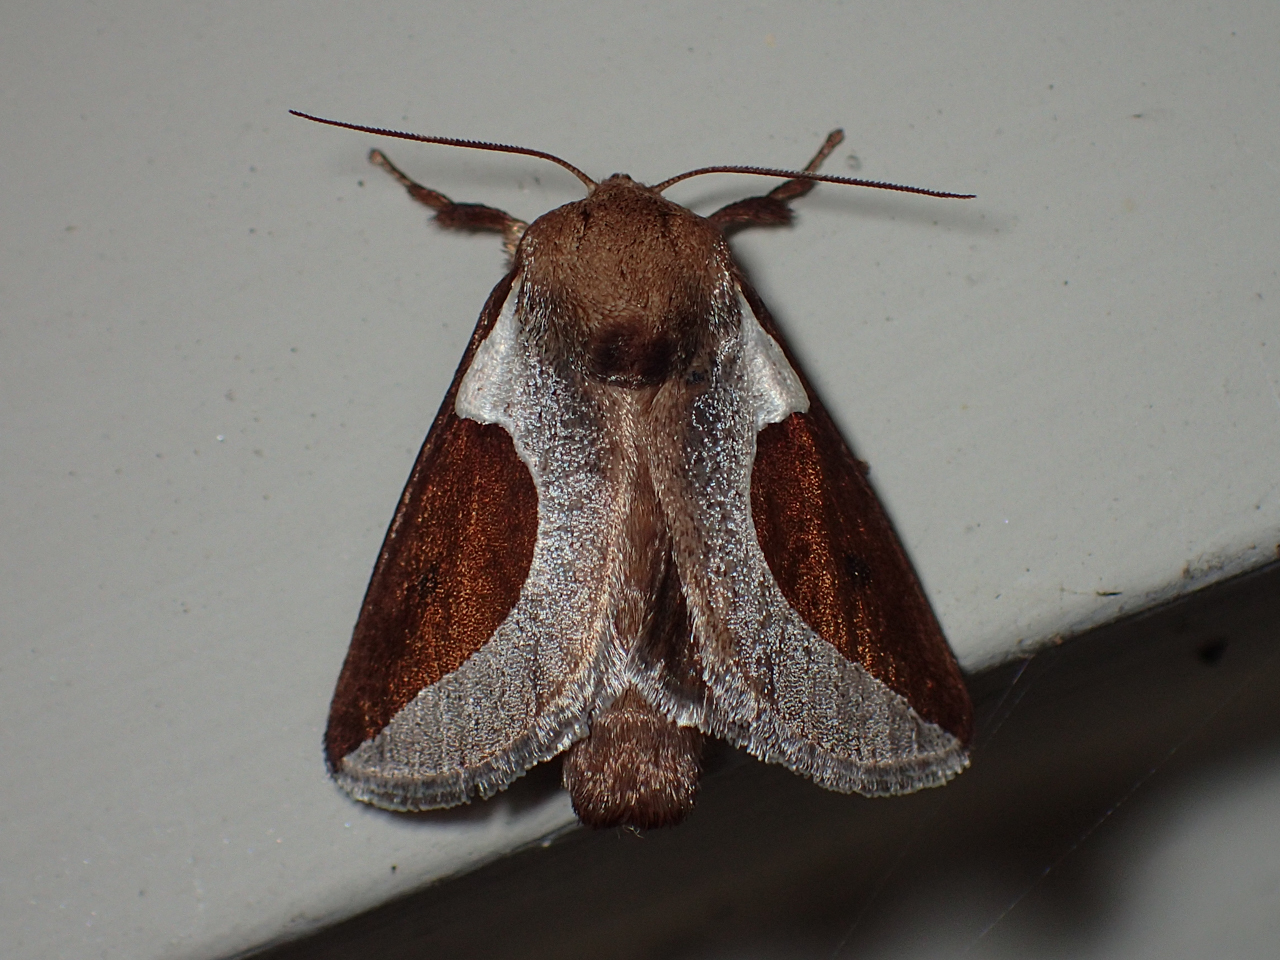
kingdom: Animalia
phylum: Arthropoda
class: Insecta
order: Lepidoptera
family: Limacodidae
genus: Prolimacodes
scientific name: Prolimacodes badia
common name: Skiff moth
